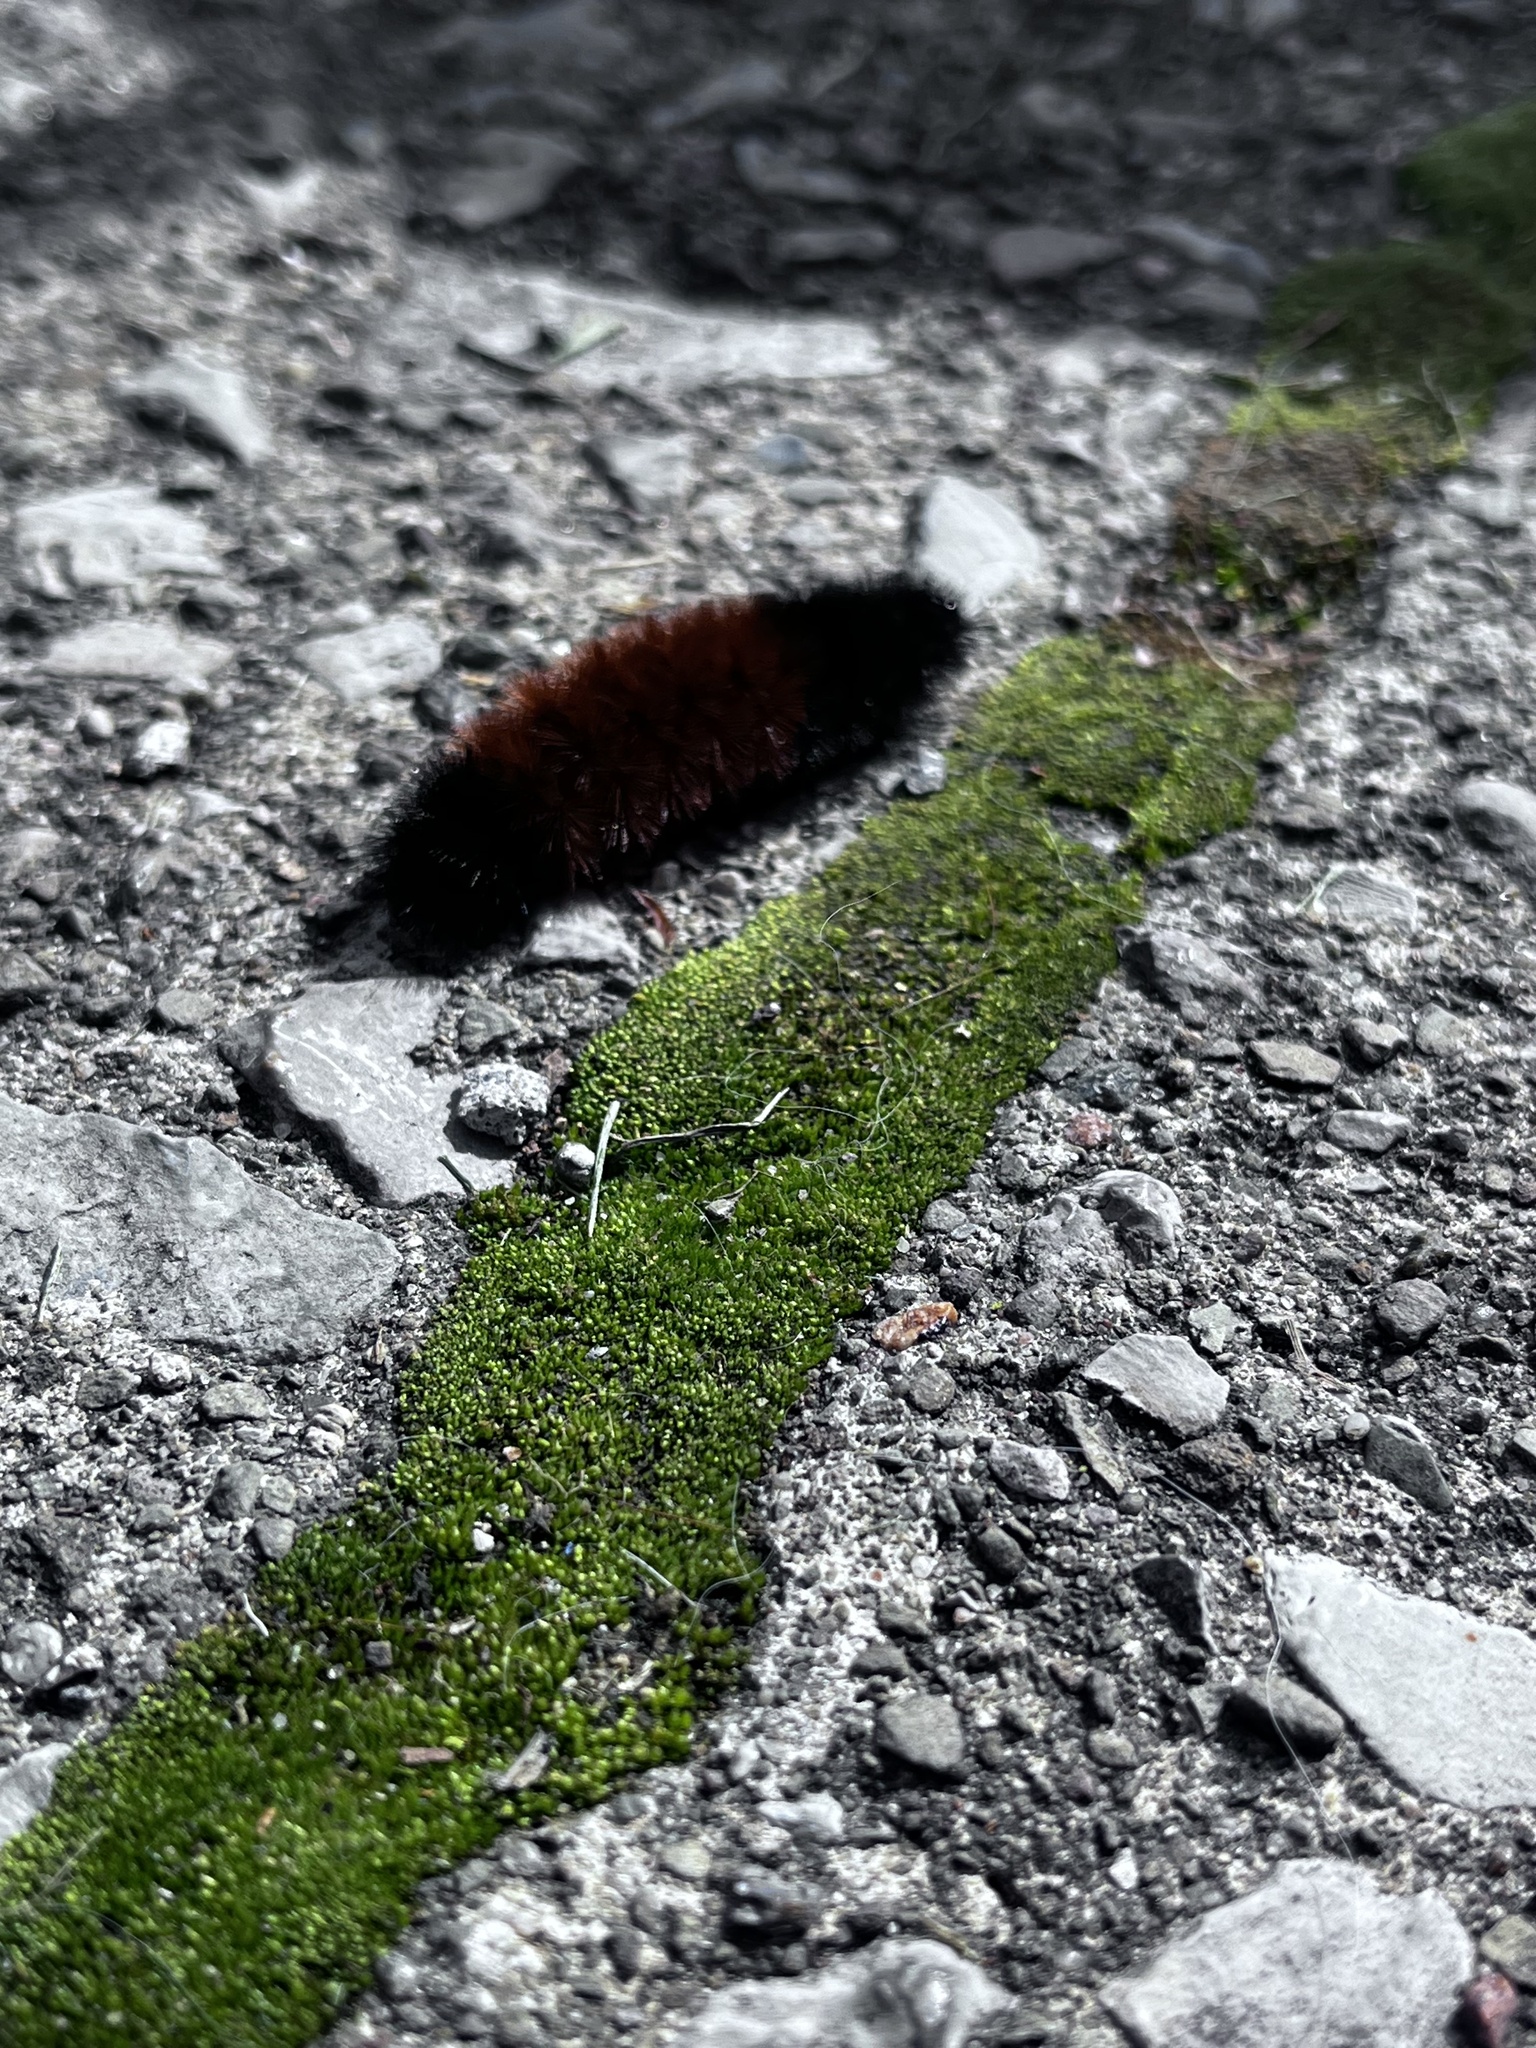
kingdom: Animalia
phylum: Arthropoda
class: Insecta
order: Lepidoptera
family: Erebidae
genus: Pyrrharctia
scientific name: Pyrrharctia isabella
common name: Isabella tiger moth
